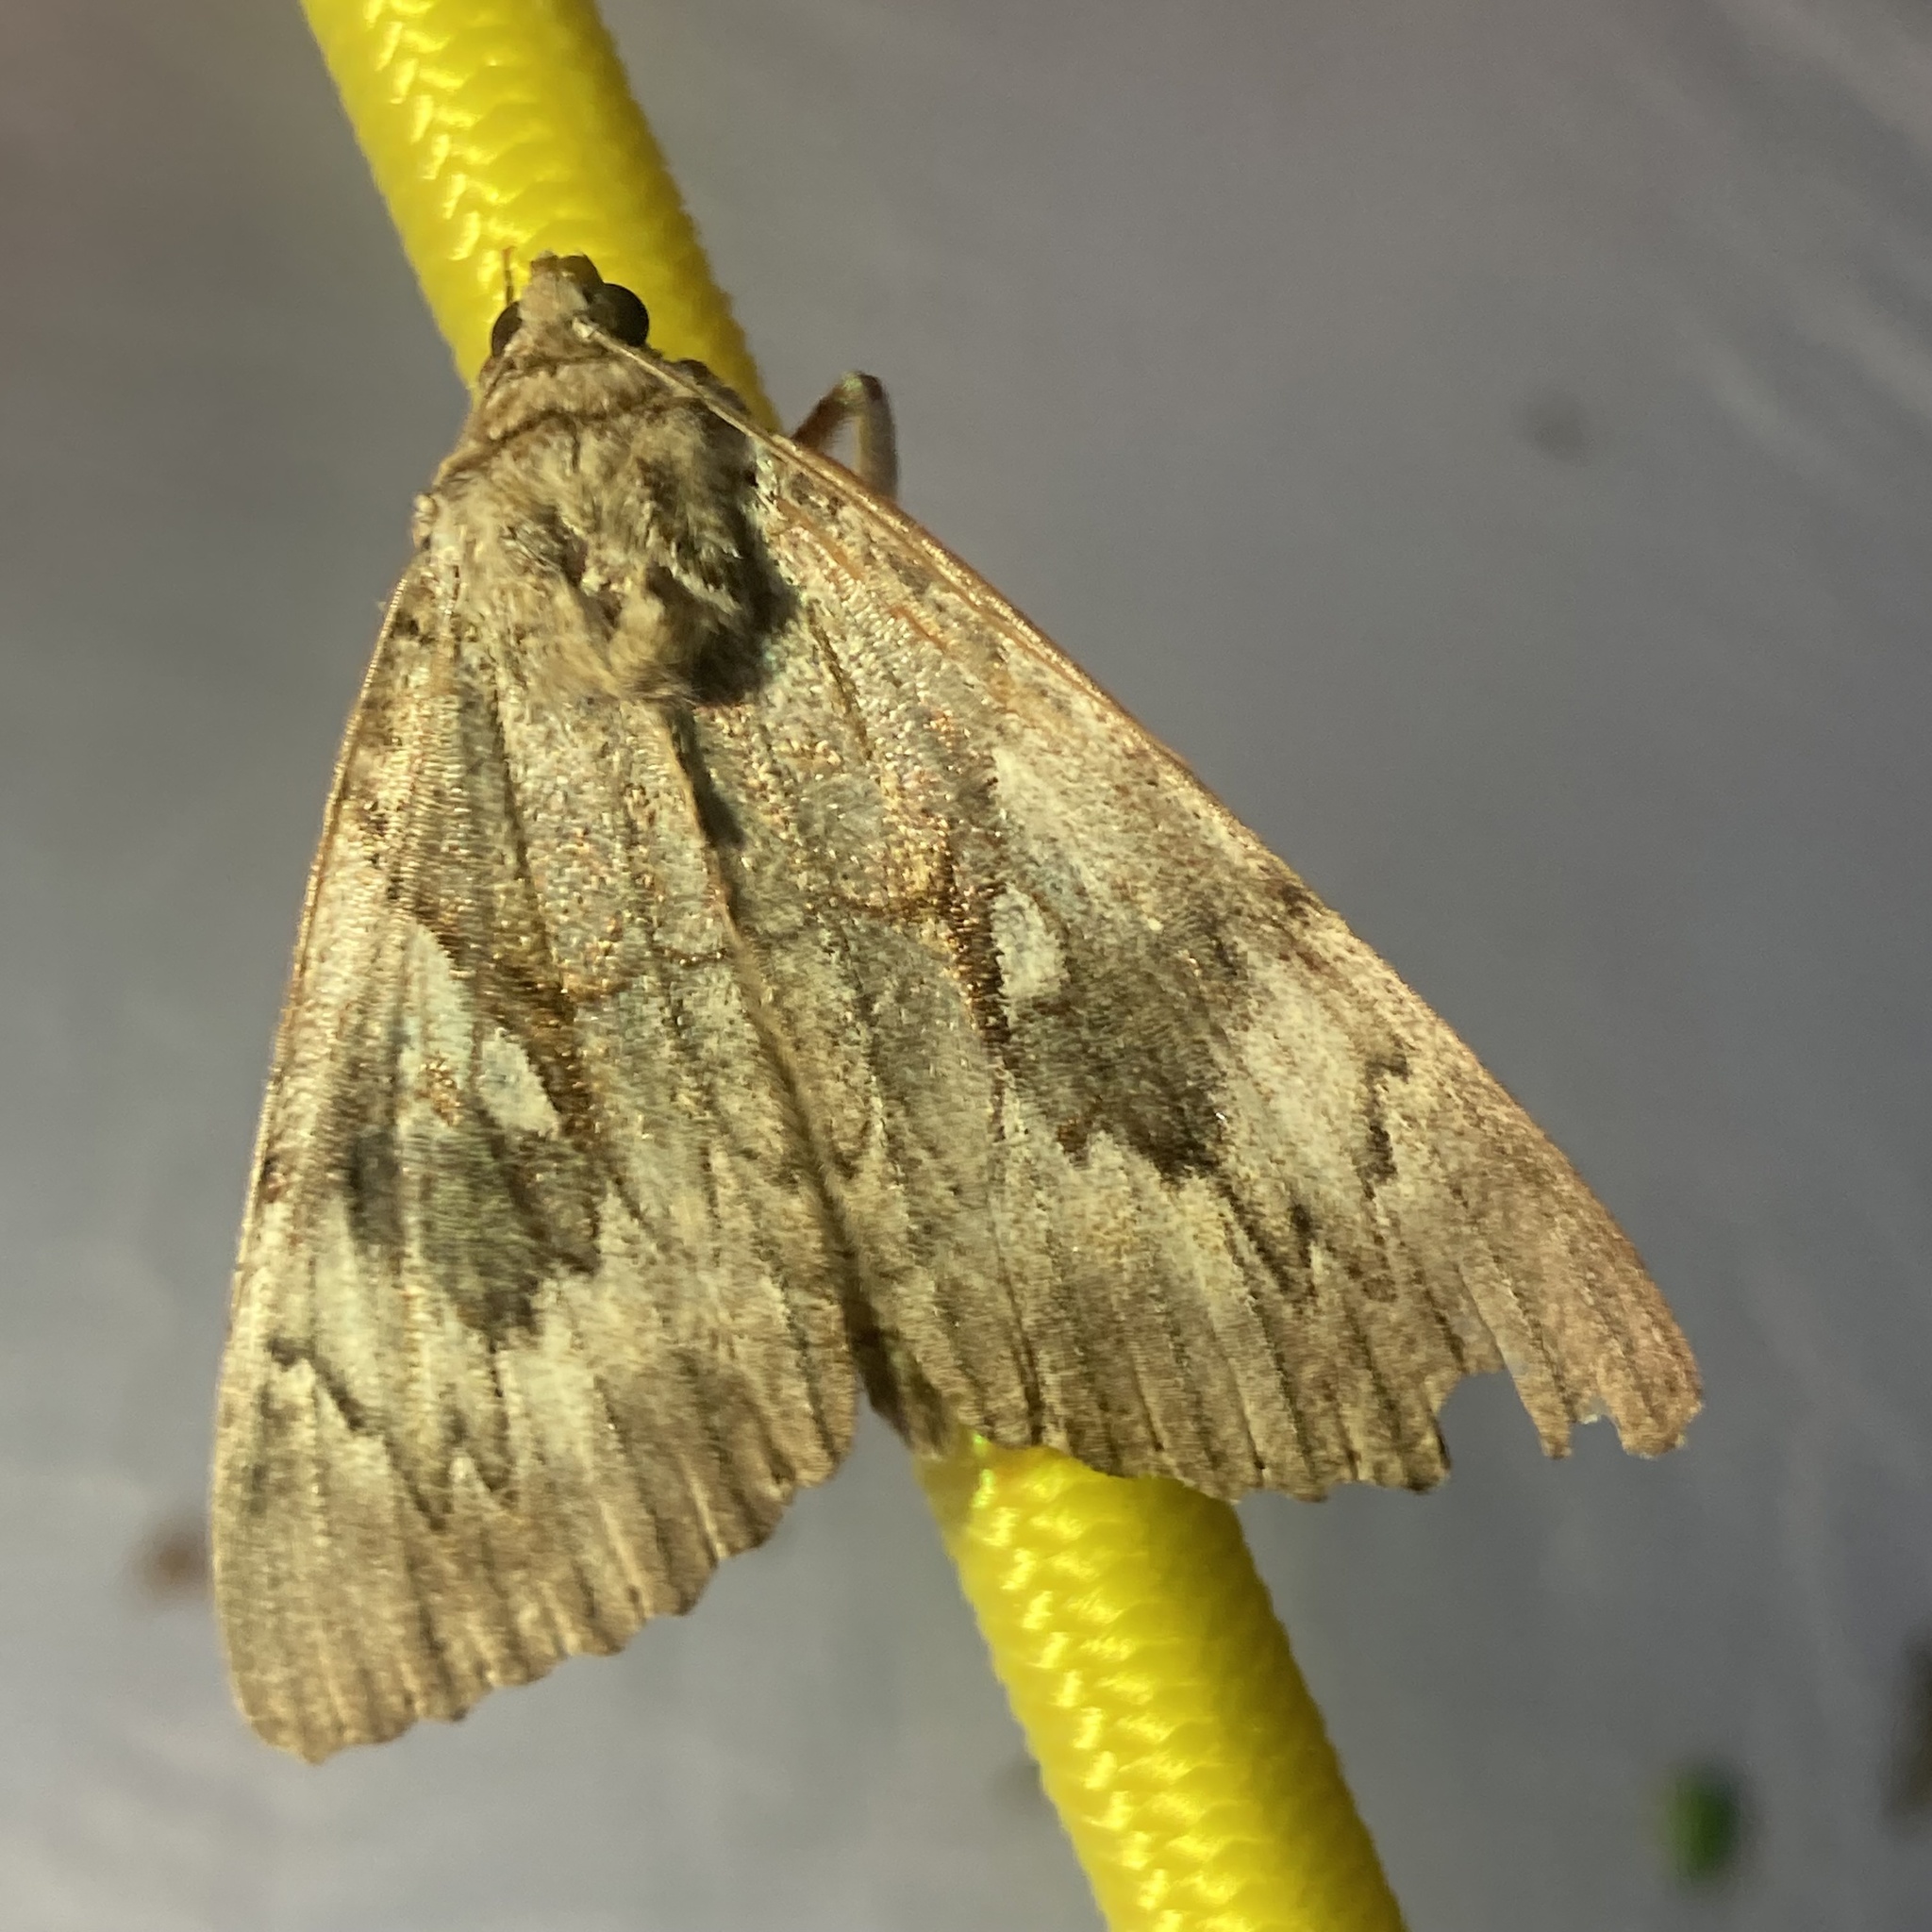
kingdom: Animalia
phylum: Arthropoda
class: Insecta
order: Lepidoptera
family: Erebidae
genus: Catocala
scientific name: Catocala cerogama
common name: Yellow banded underwing
